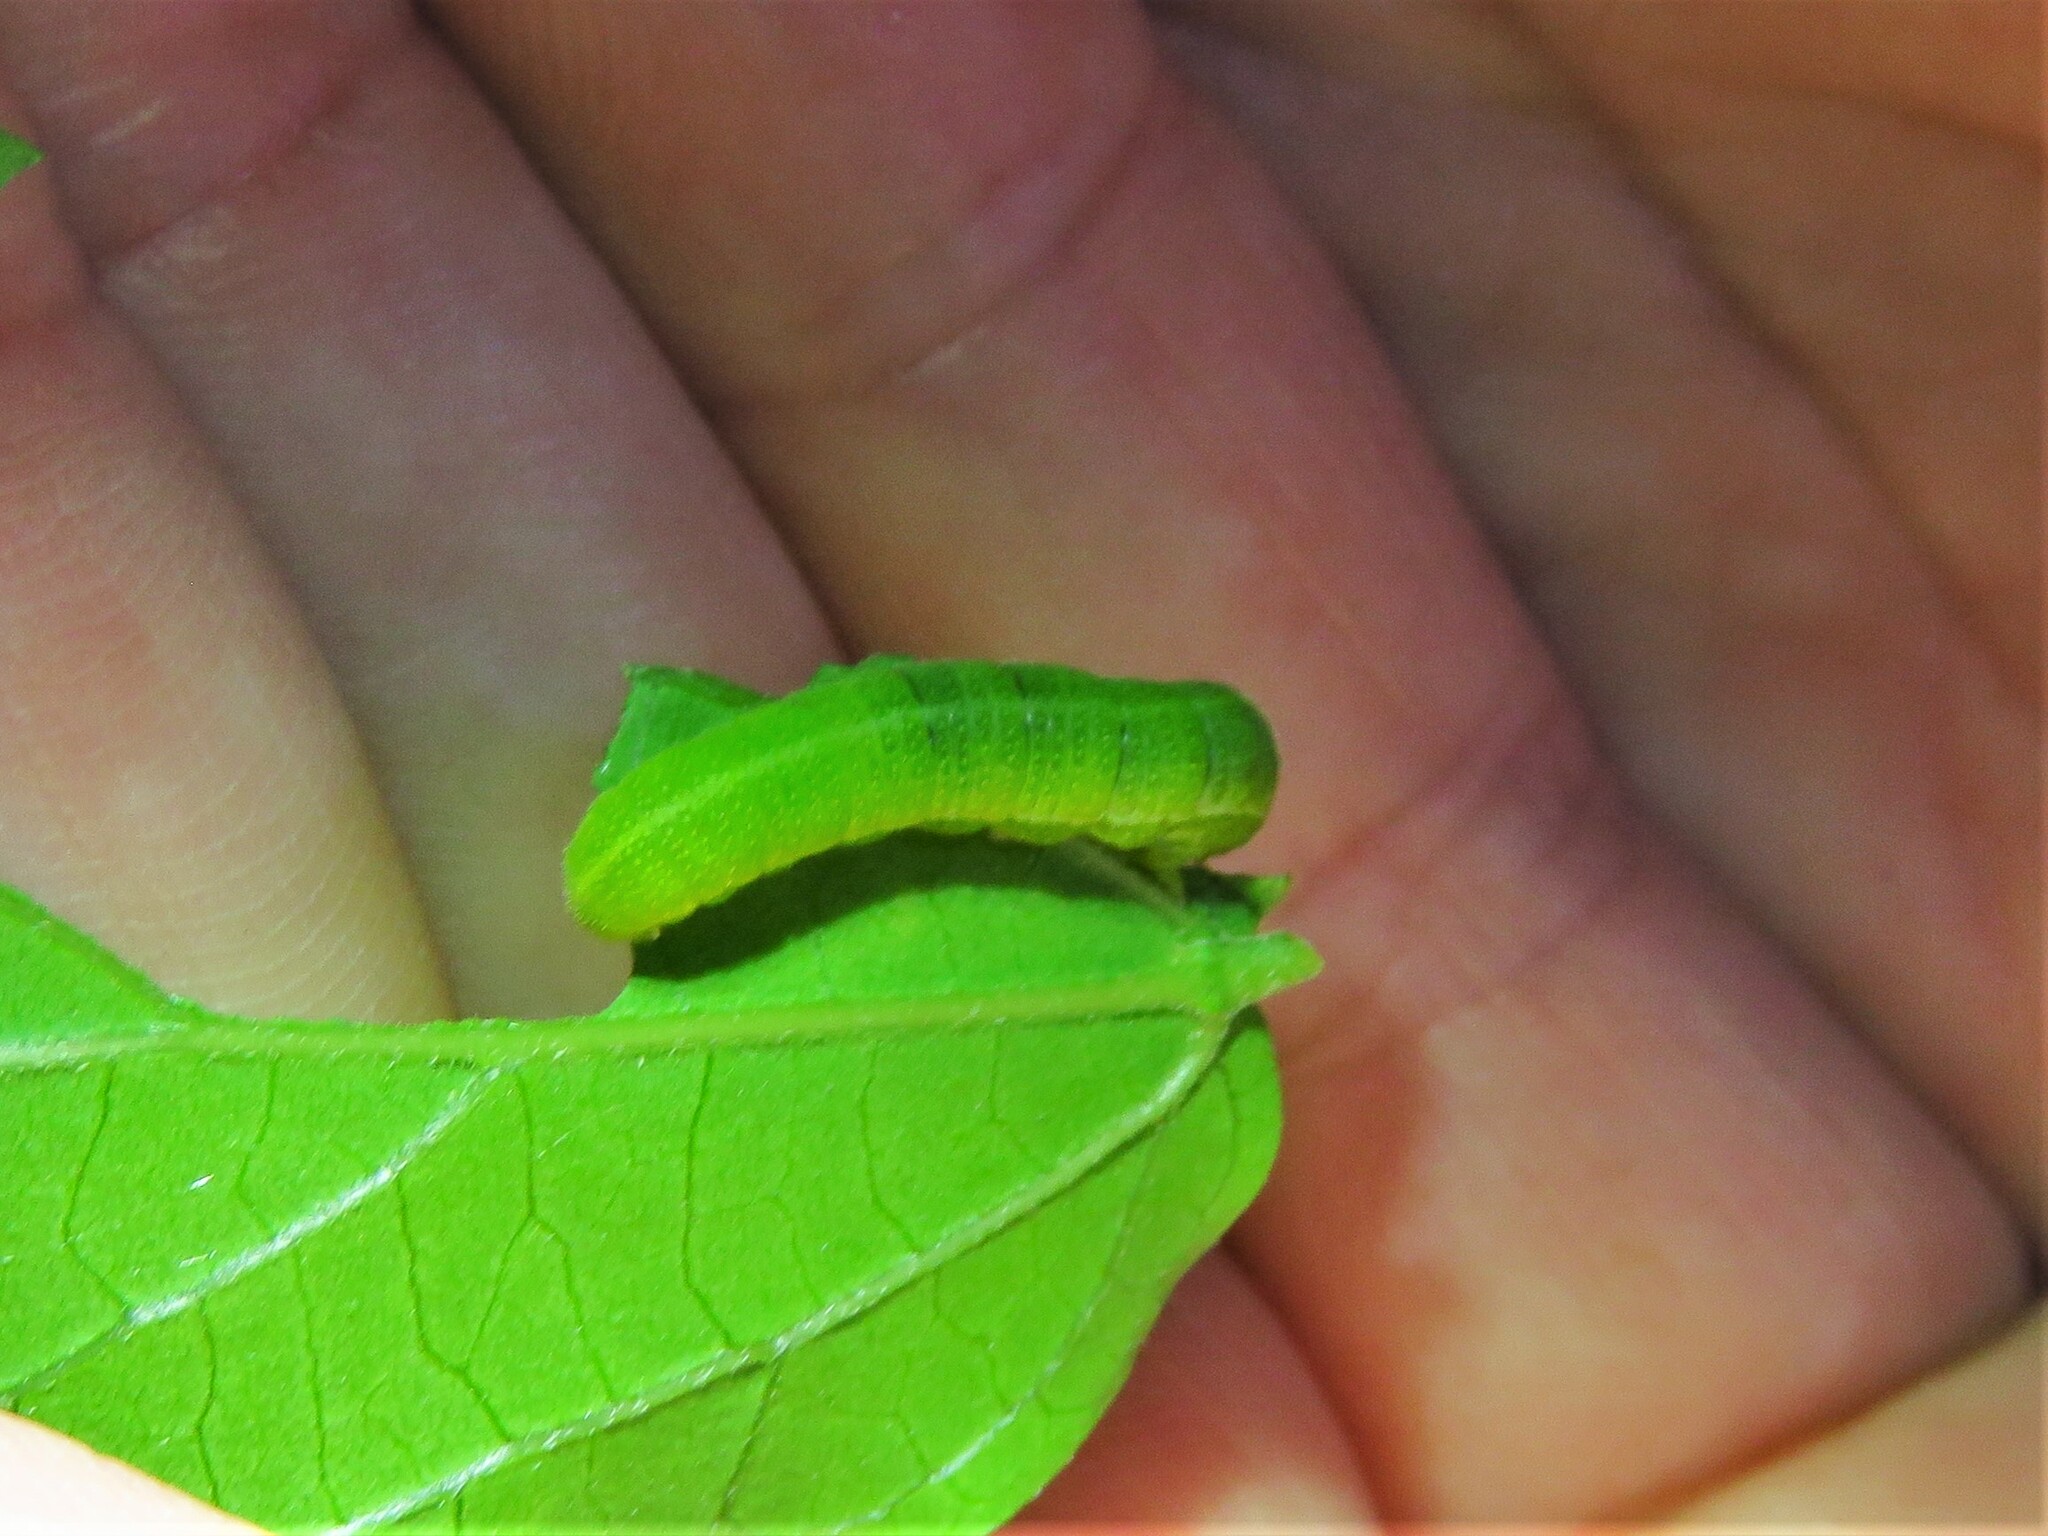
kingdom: Animalia
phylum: Arthropoda
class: Insecta
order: Lepidoptera
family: Nymphalidae
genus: Libytheana
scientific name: Libytheana carinenta
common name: American snout
